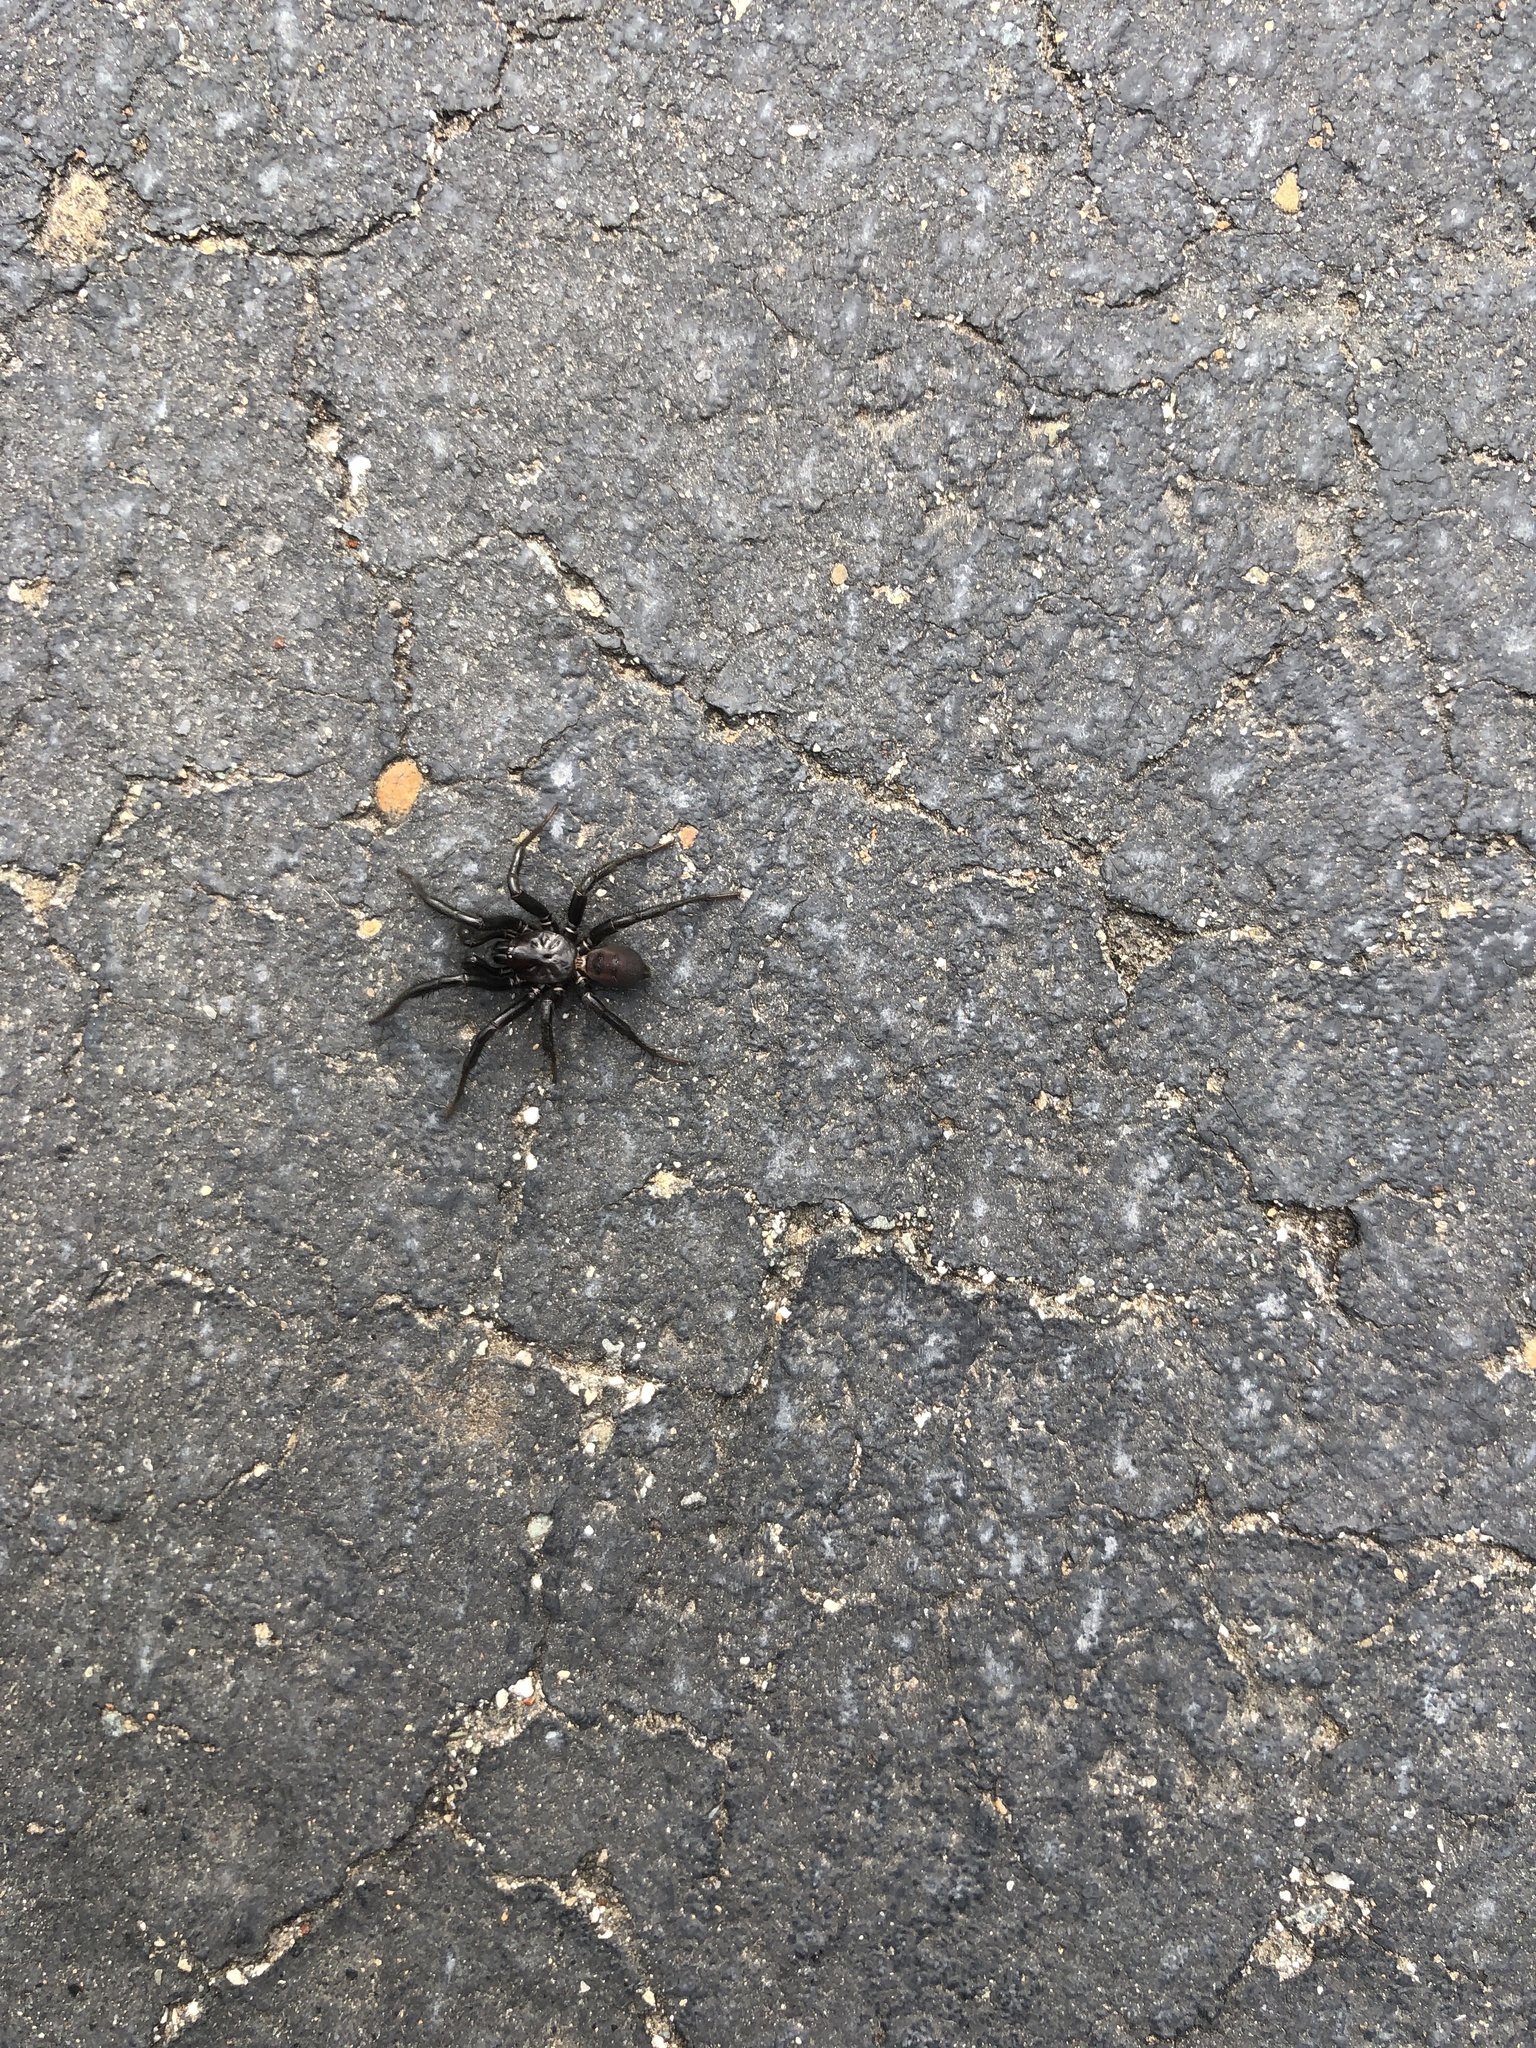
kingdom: Animalia
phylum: Arthropoda
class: Arachnida
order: Araneae
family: Antrodiaetidae
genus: Antrodiaetus
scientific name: Antrodiaetus pacificus
